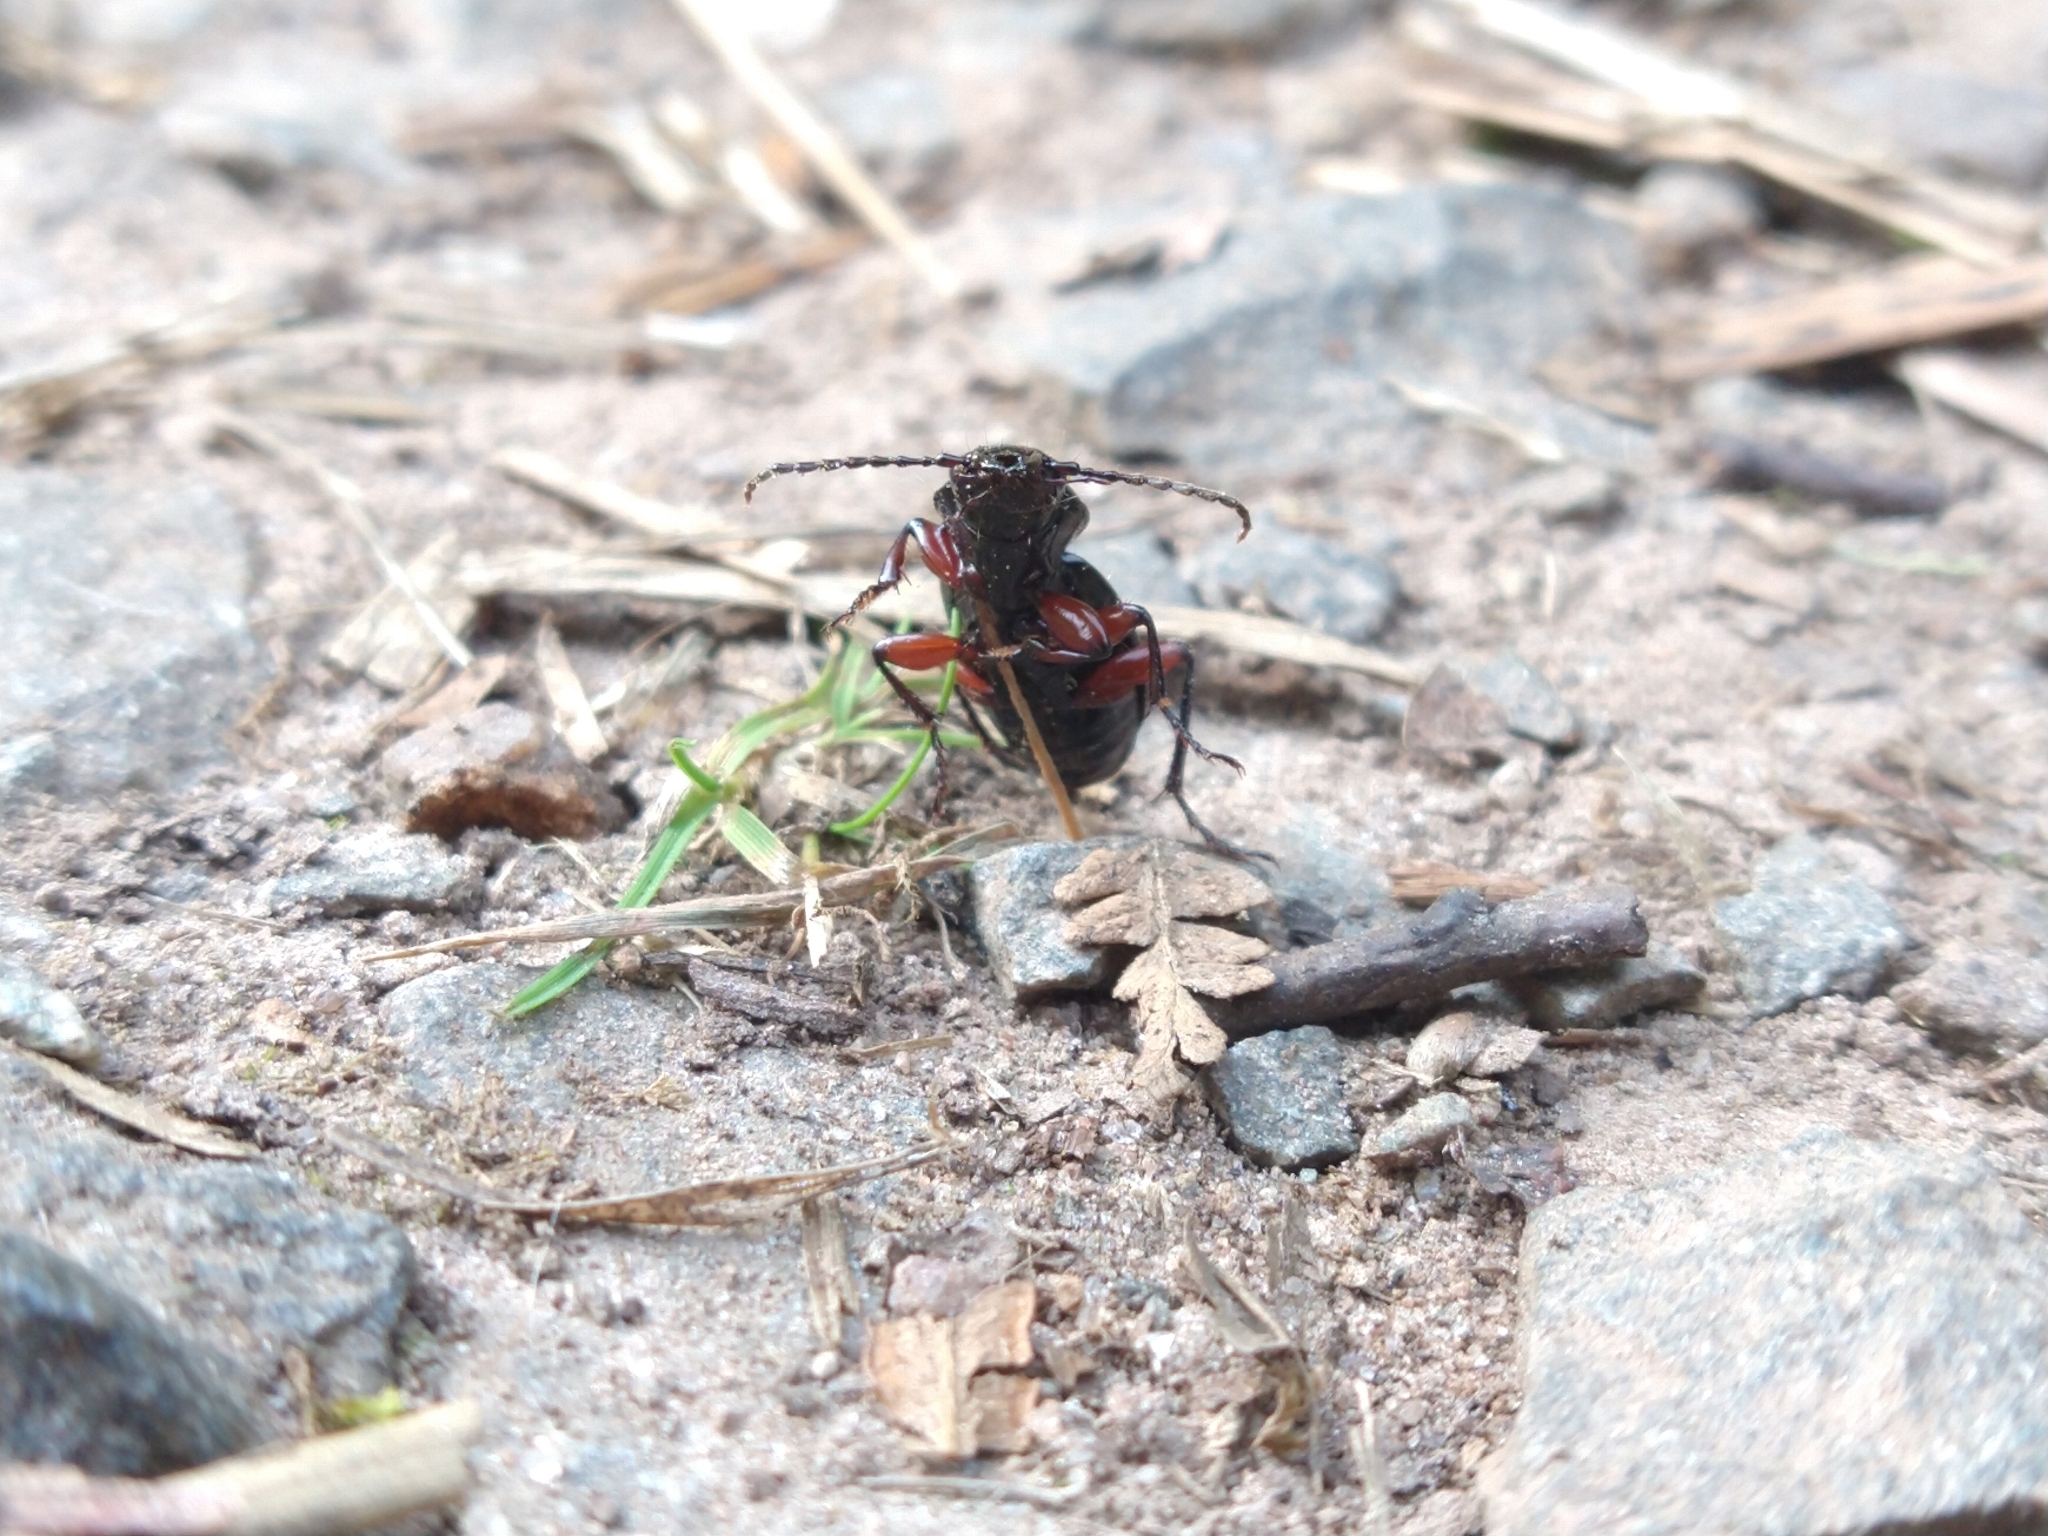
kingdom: Animalia
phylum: Arthropoda
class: Insecta
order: Coleoptera
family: Carabidae
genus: Pterostichus
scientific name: Pterostichus madidus
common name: Black clock
